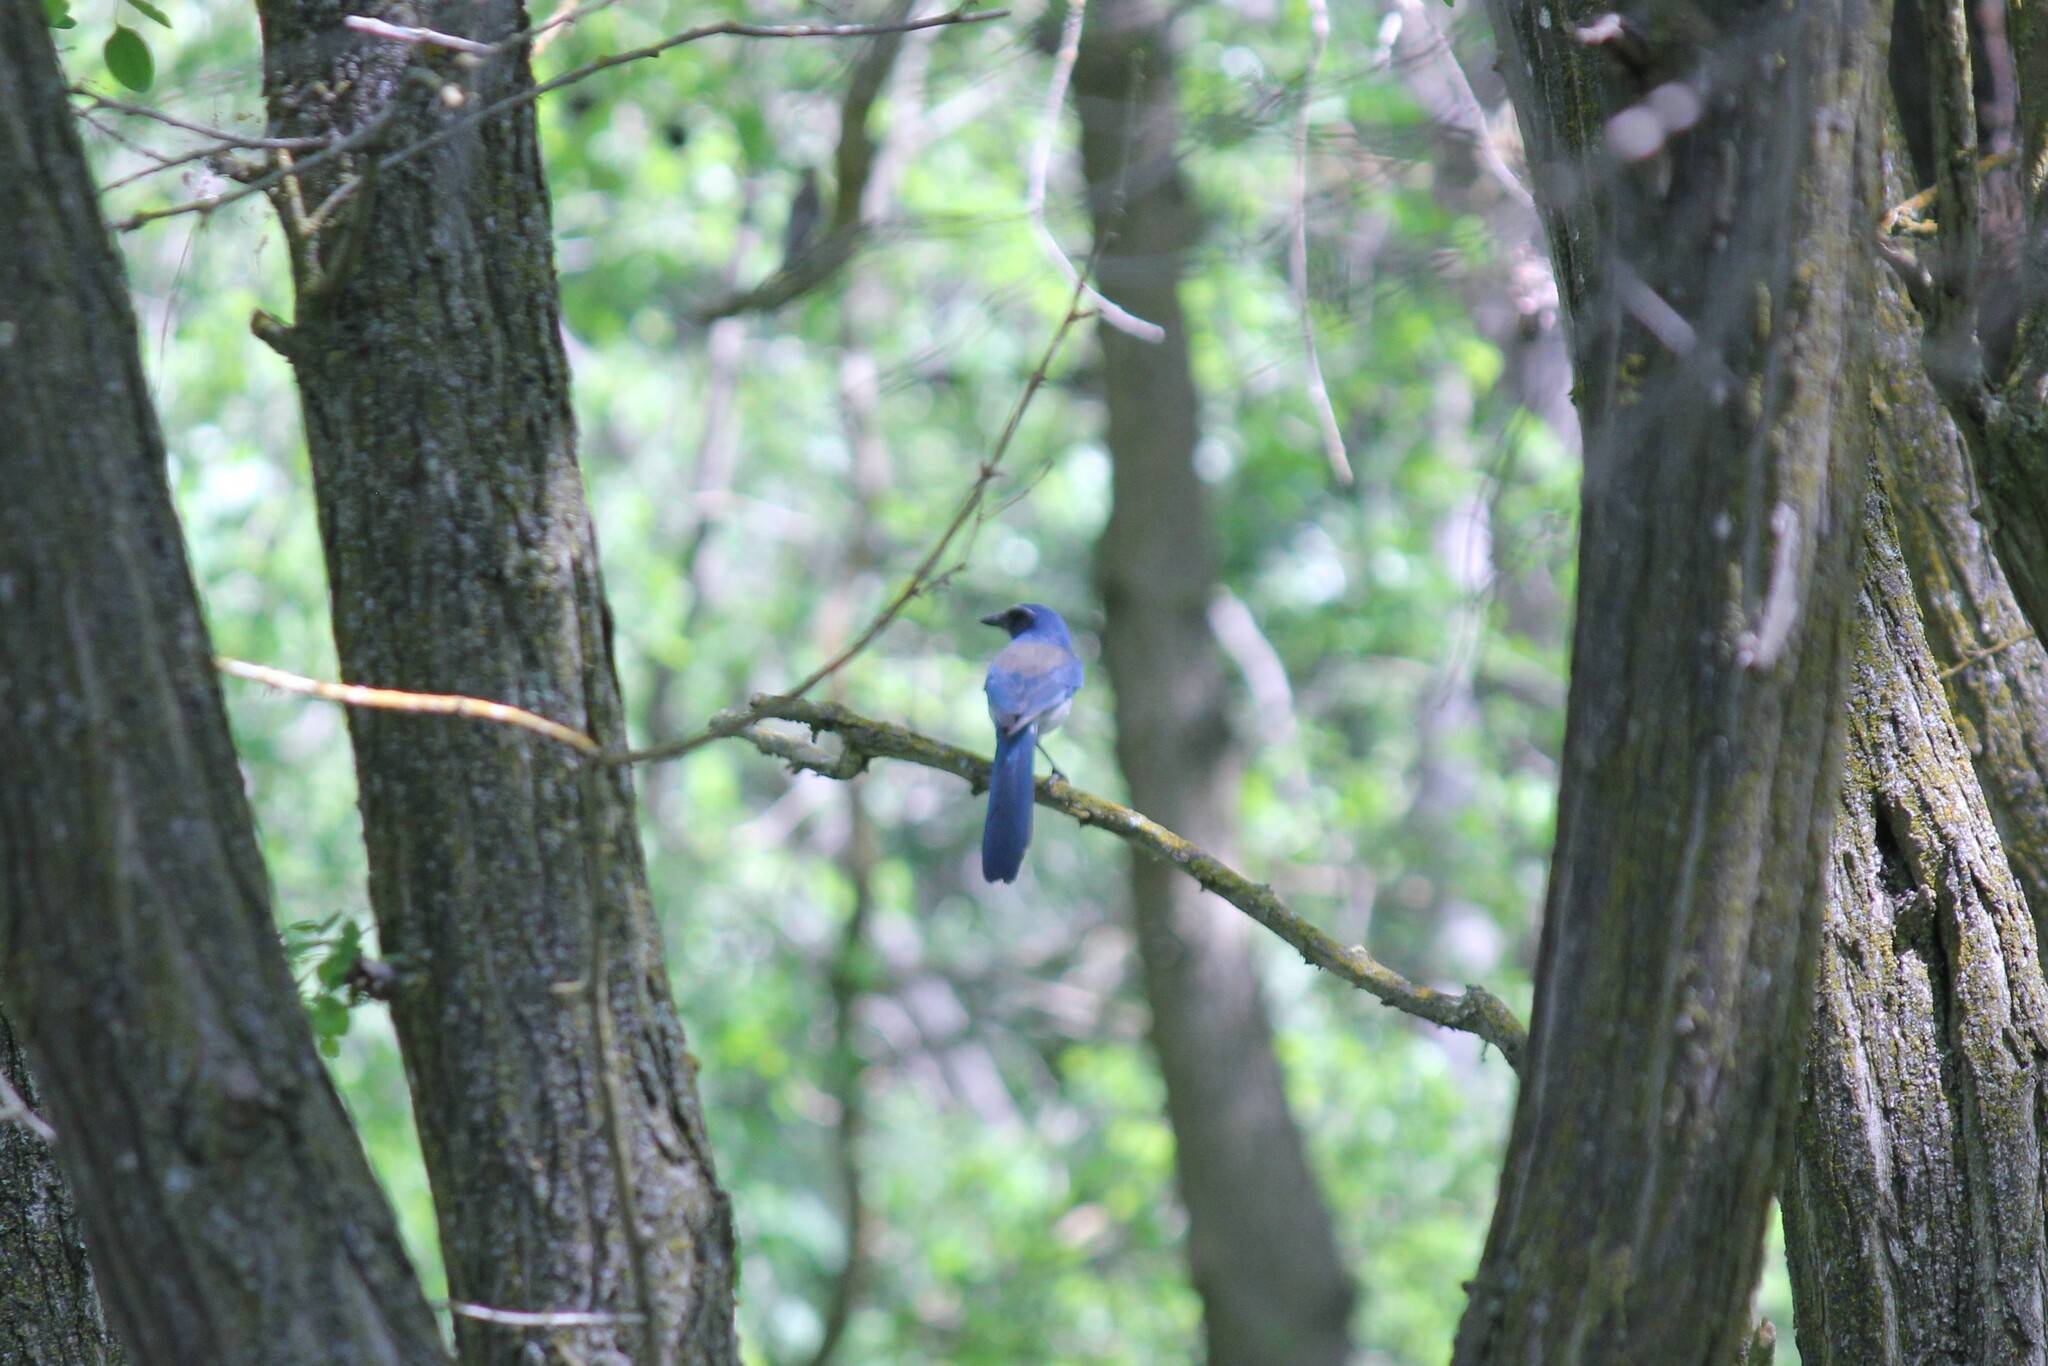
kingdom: Animalia
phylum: Chordata
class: Aves
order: Passeriformes
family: Corvidae
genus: Aphelocoma
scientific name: Aphelocoma californica
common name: California scrub-jay
